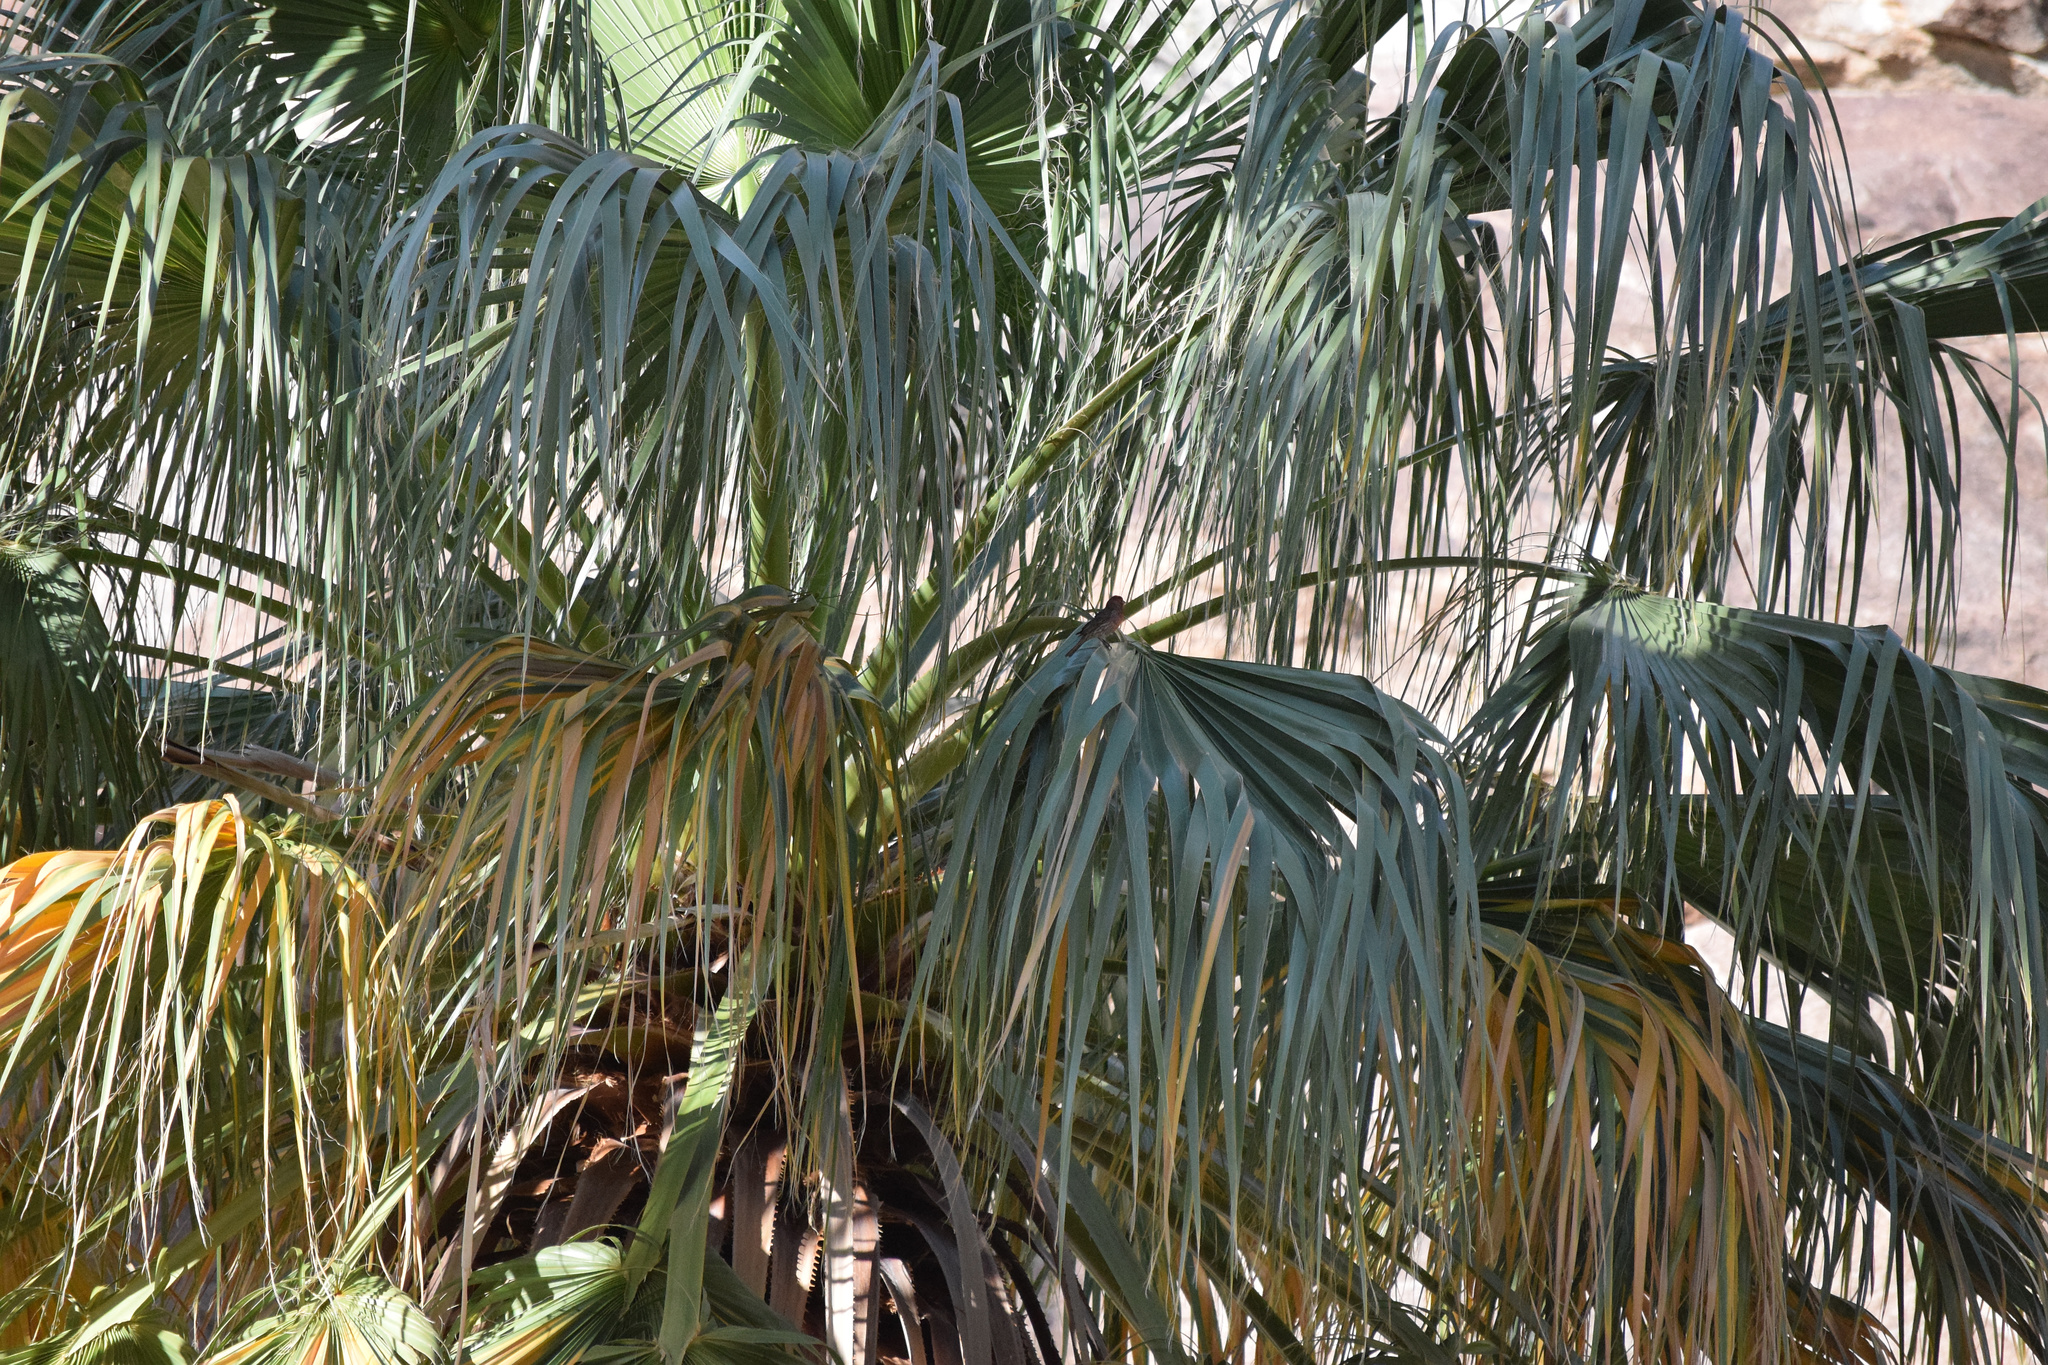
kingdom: Plantae
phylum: Tracheophyta
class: Liliopsida
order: Arecales
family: Arecaceae
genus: Washingtonia
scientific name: Washingtonia filifera
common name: California fan palm
